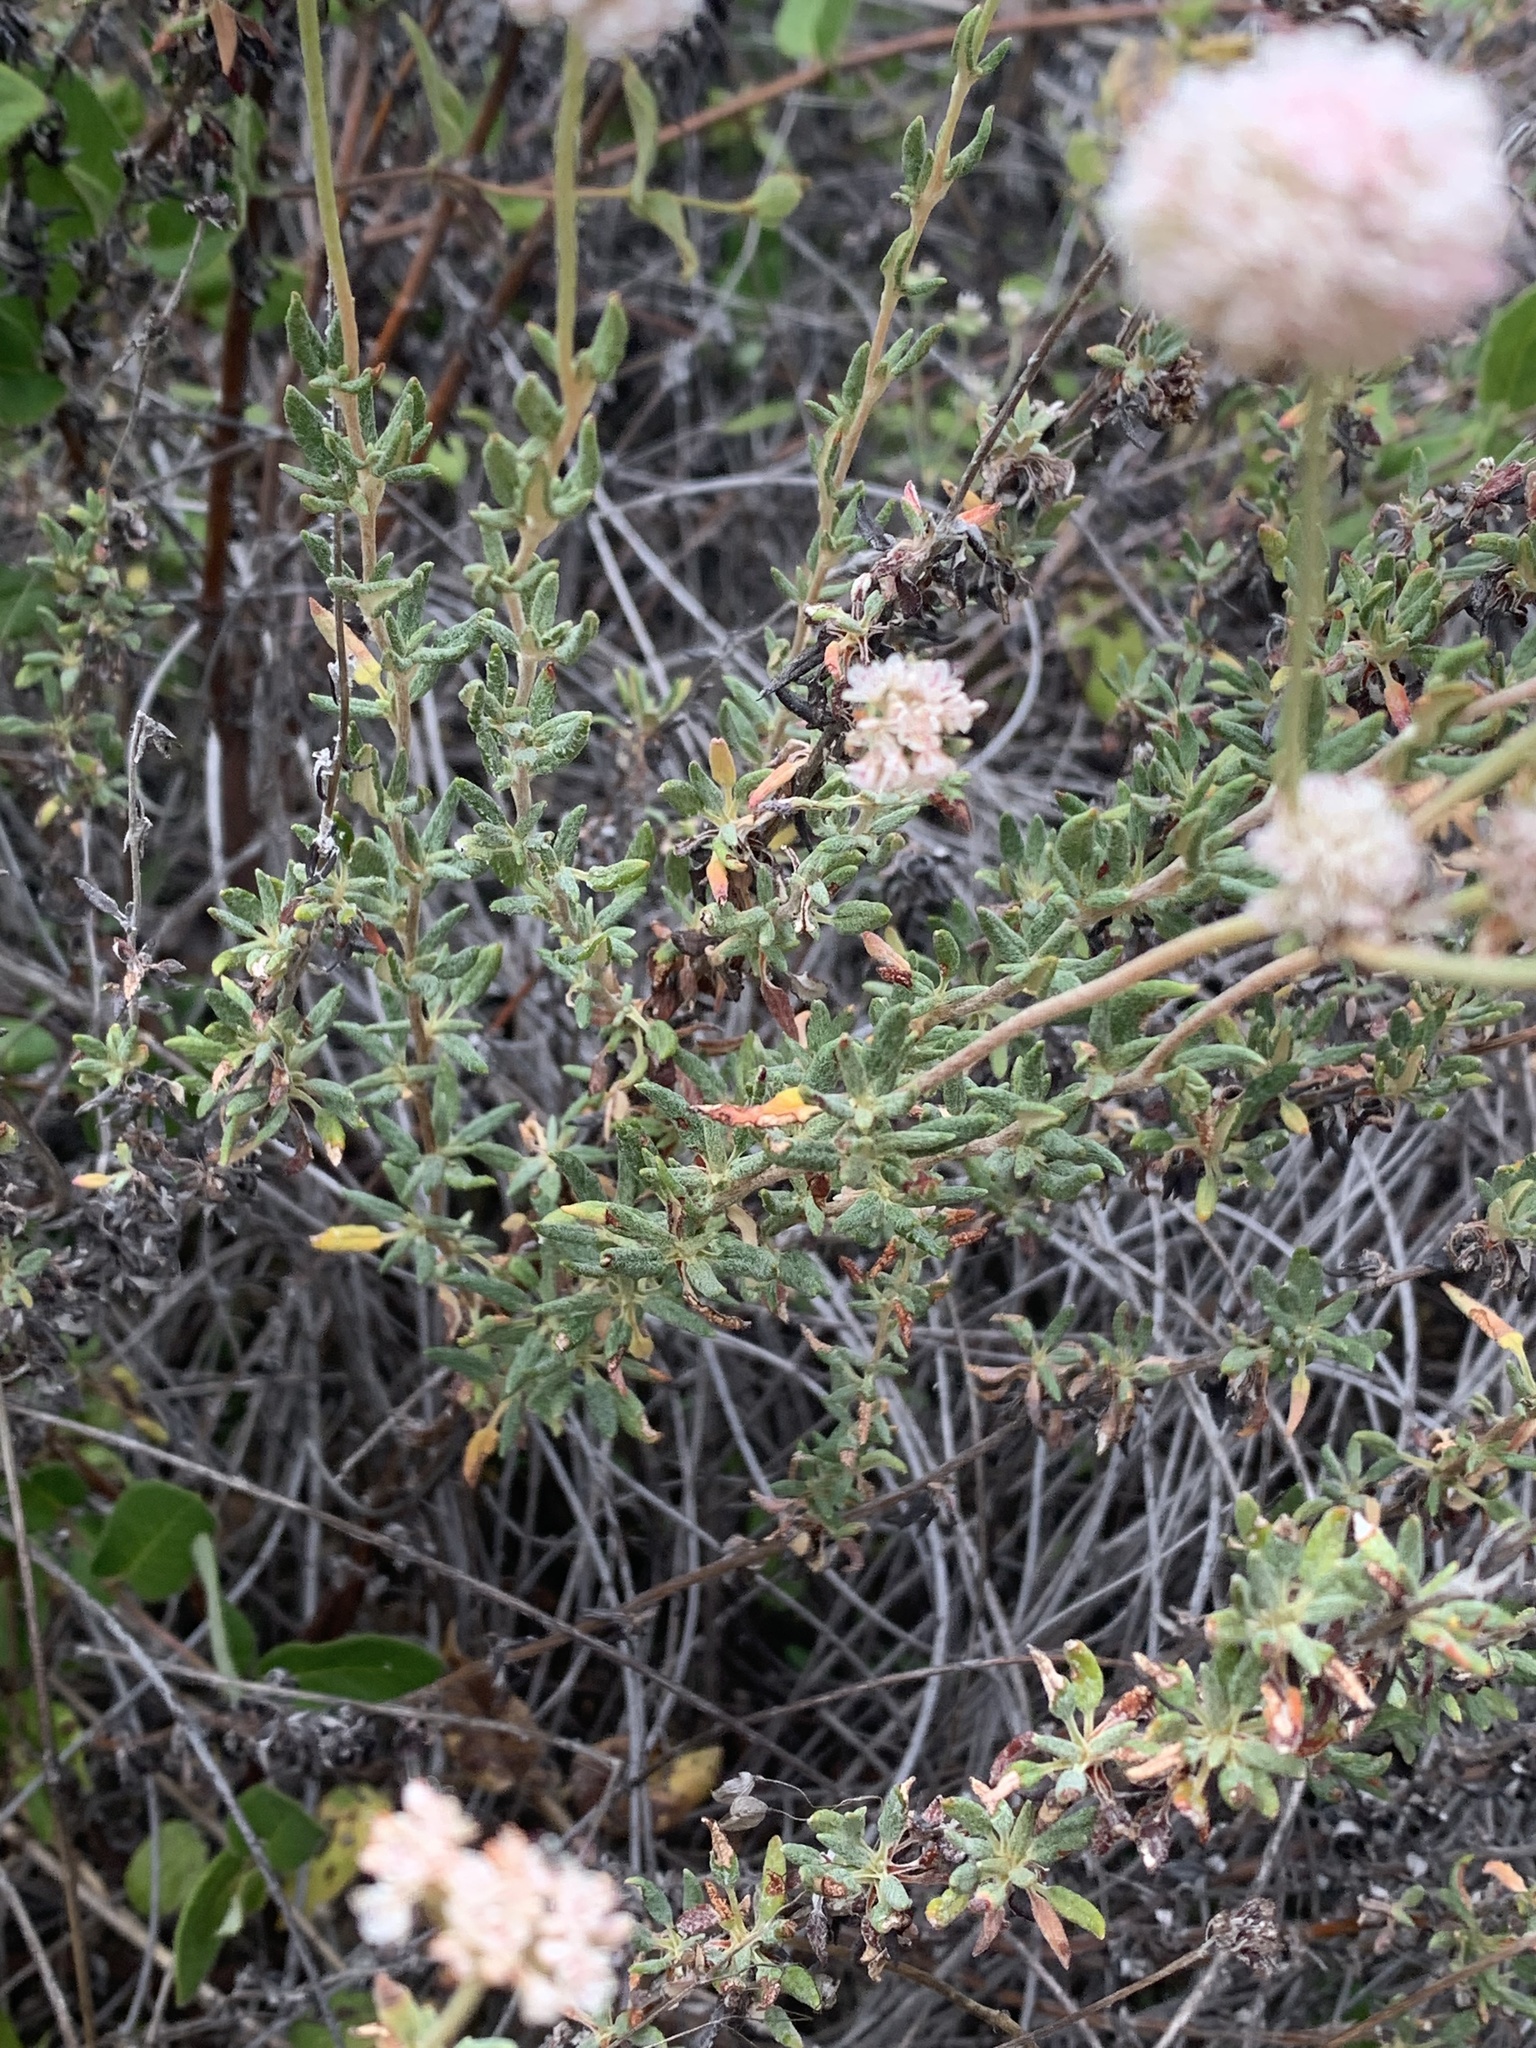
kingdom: Plantae
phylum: Tracheophyta
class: Magnoliopsida
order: Caryophyllales
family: Polygonaceae
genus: Eriogonum
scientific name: Eriogonum parvifolium
